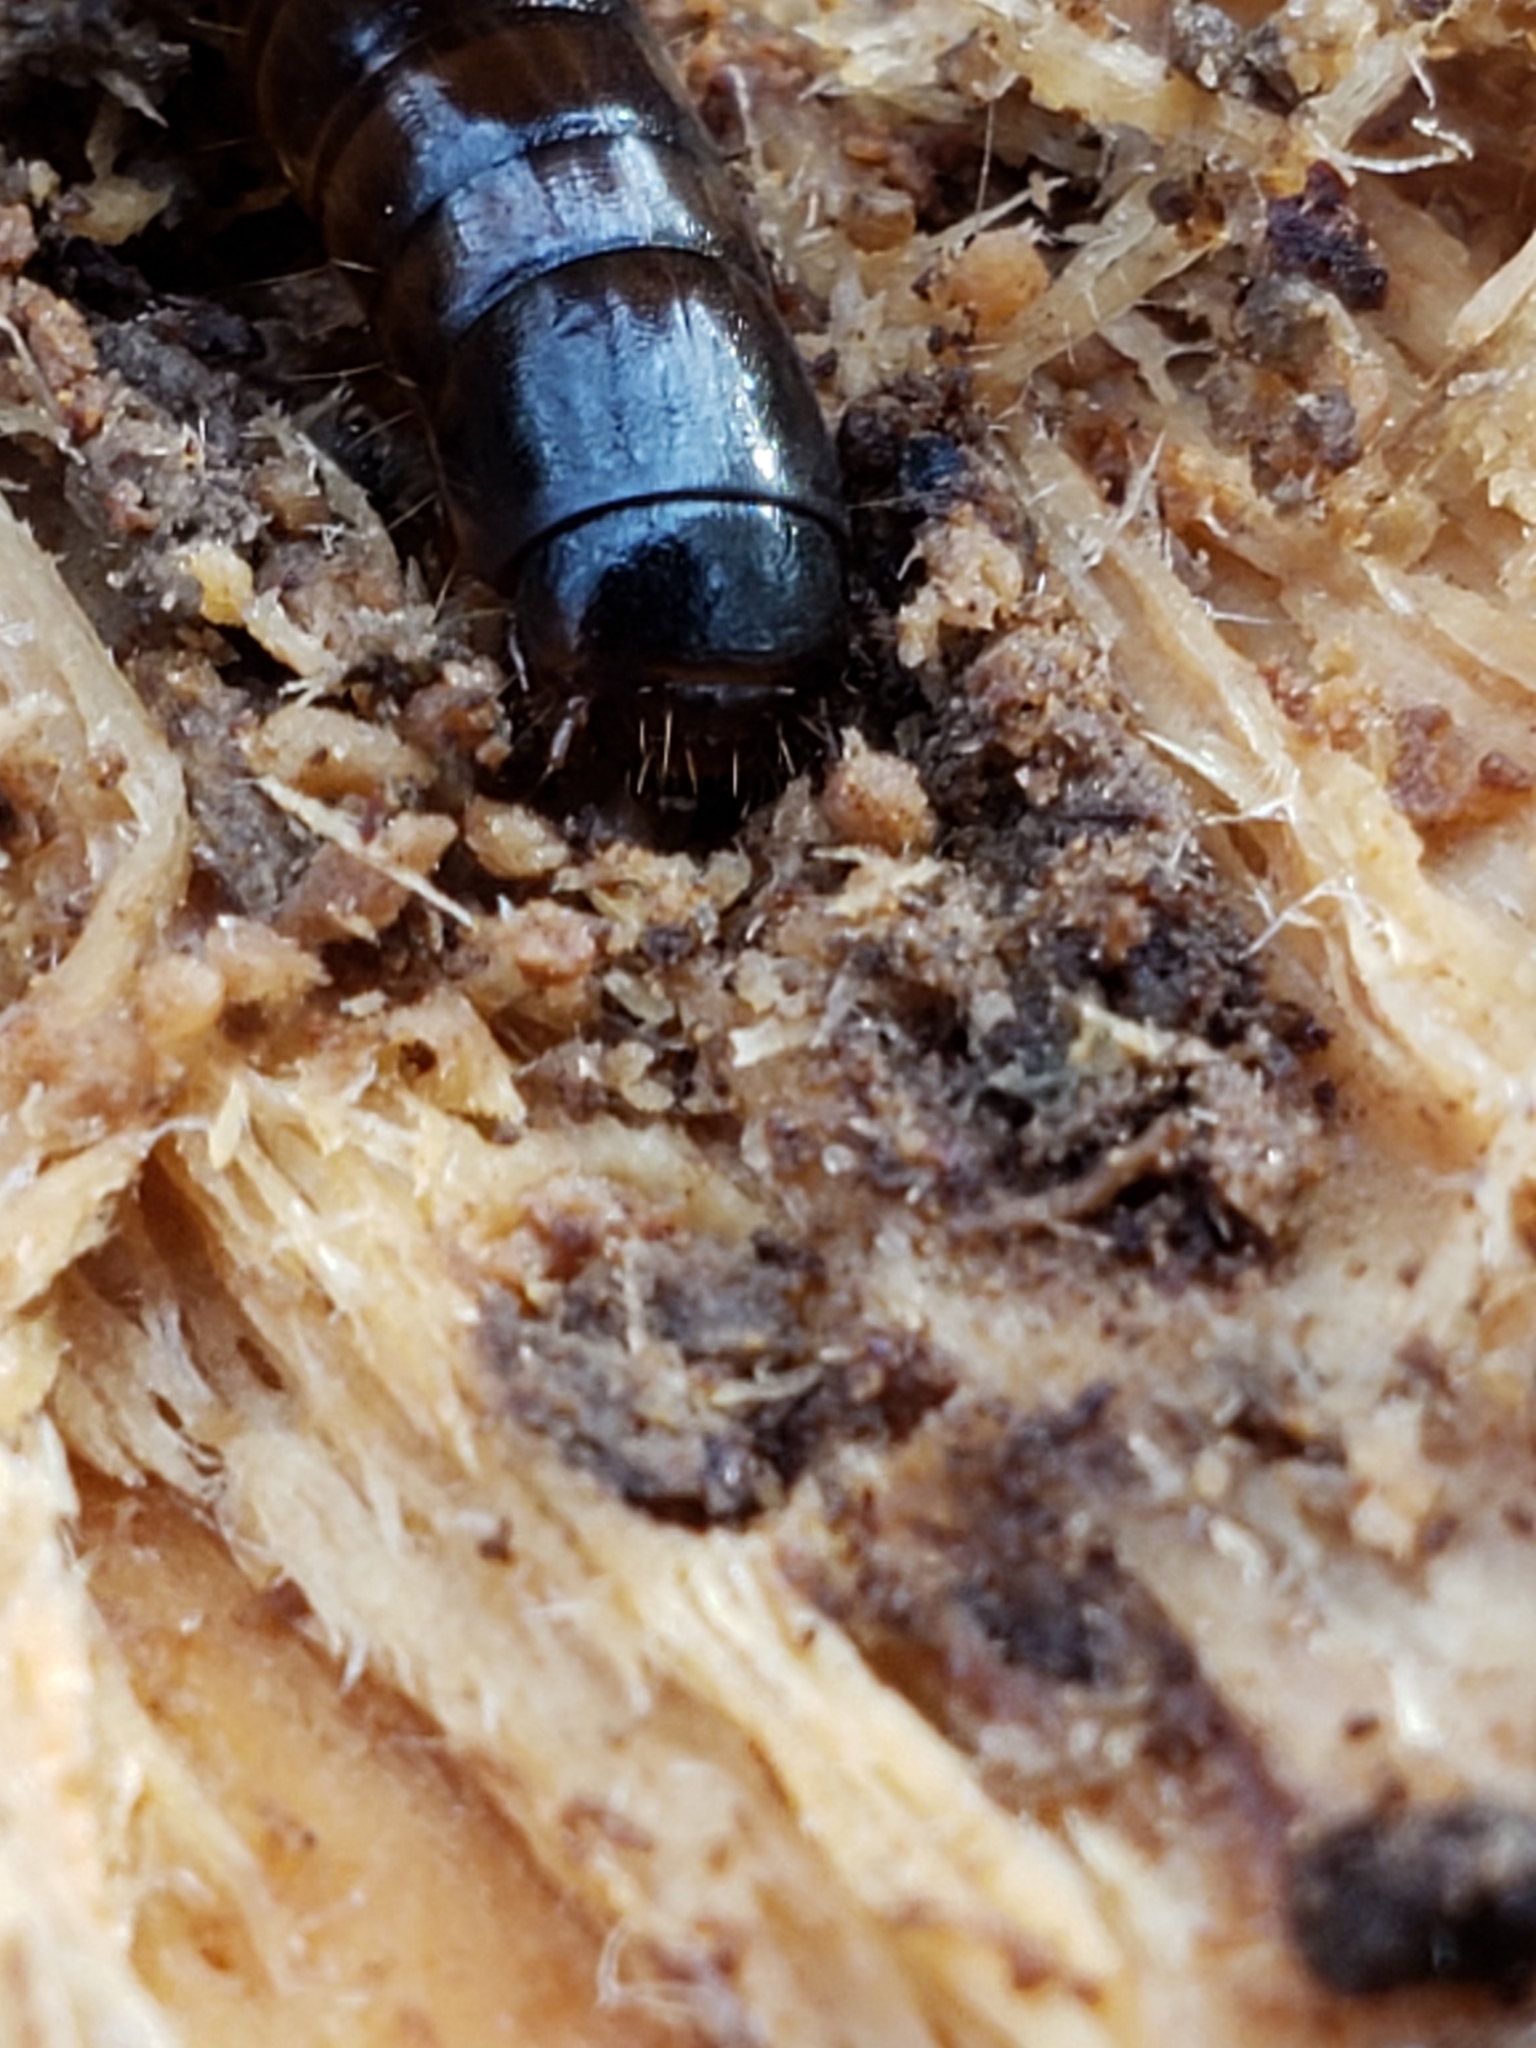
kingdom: Animalia
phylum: Arthropoda
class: Insecta
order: Coleoptera
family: Tenebrionidae
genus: Meracantha
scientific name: Meracantha contracta
